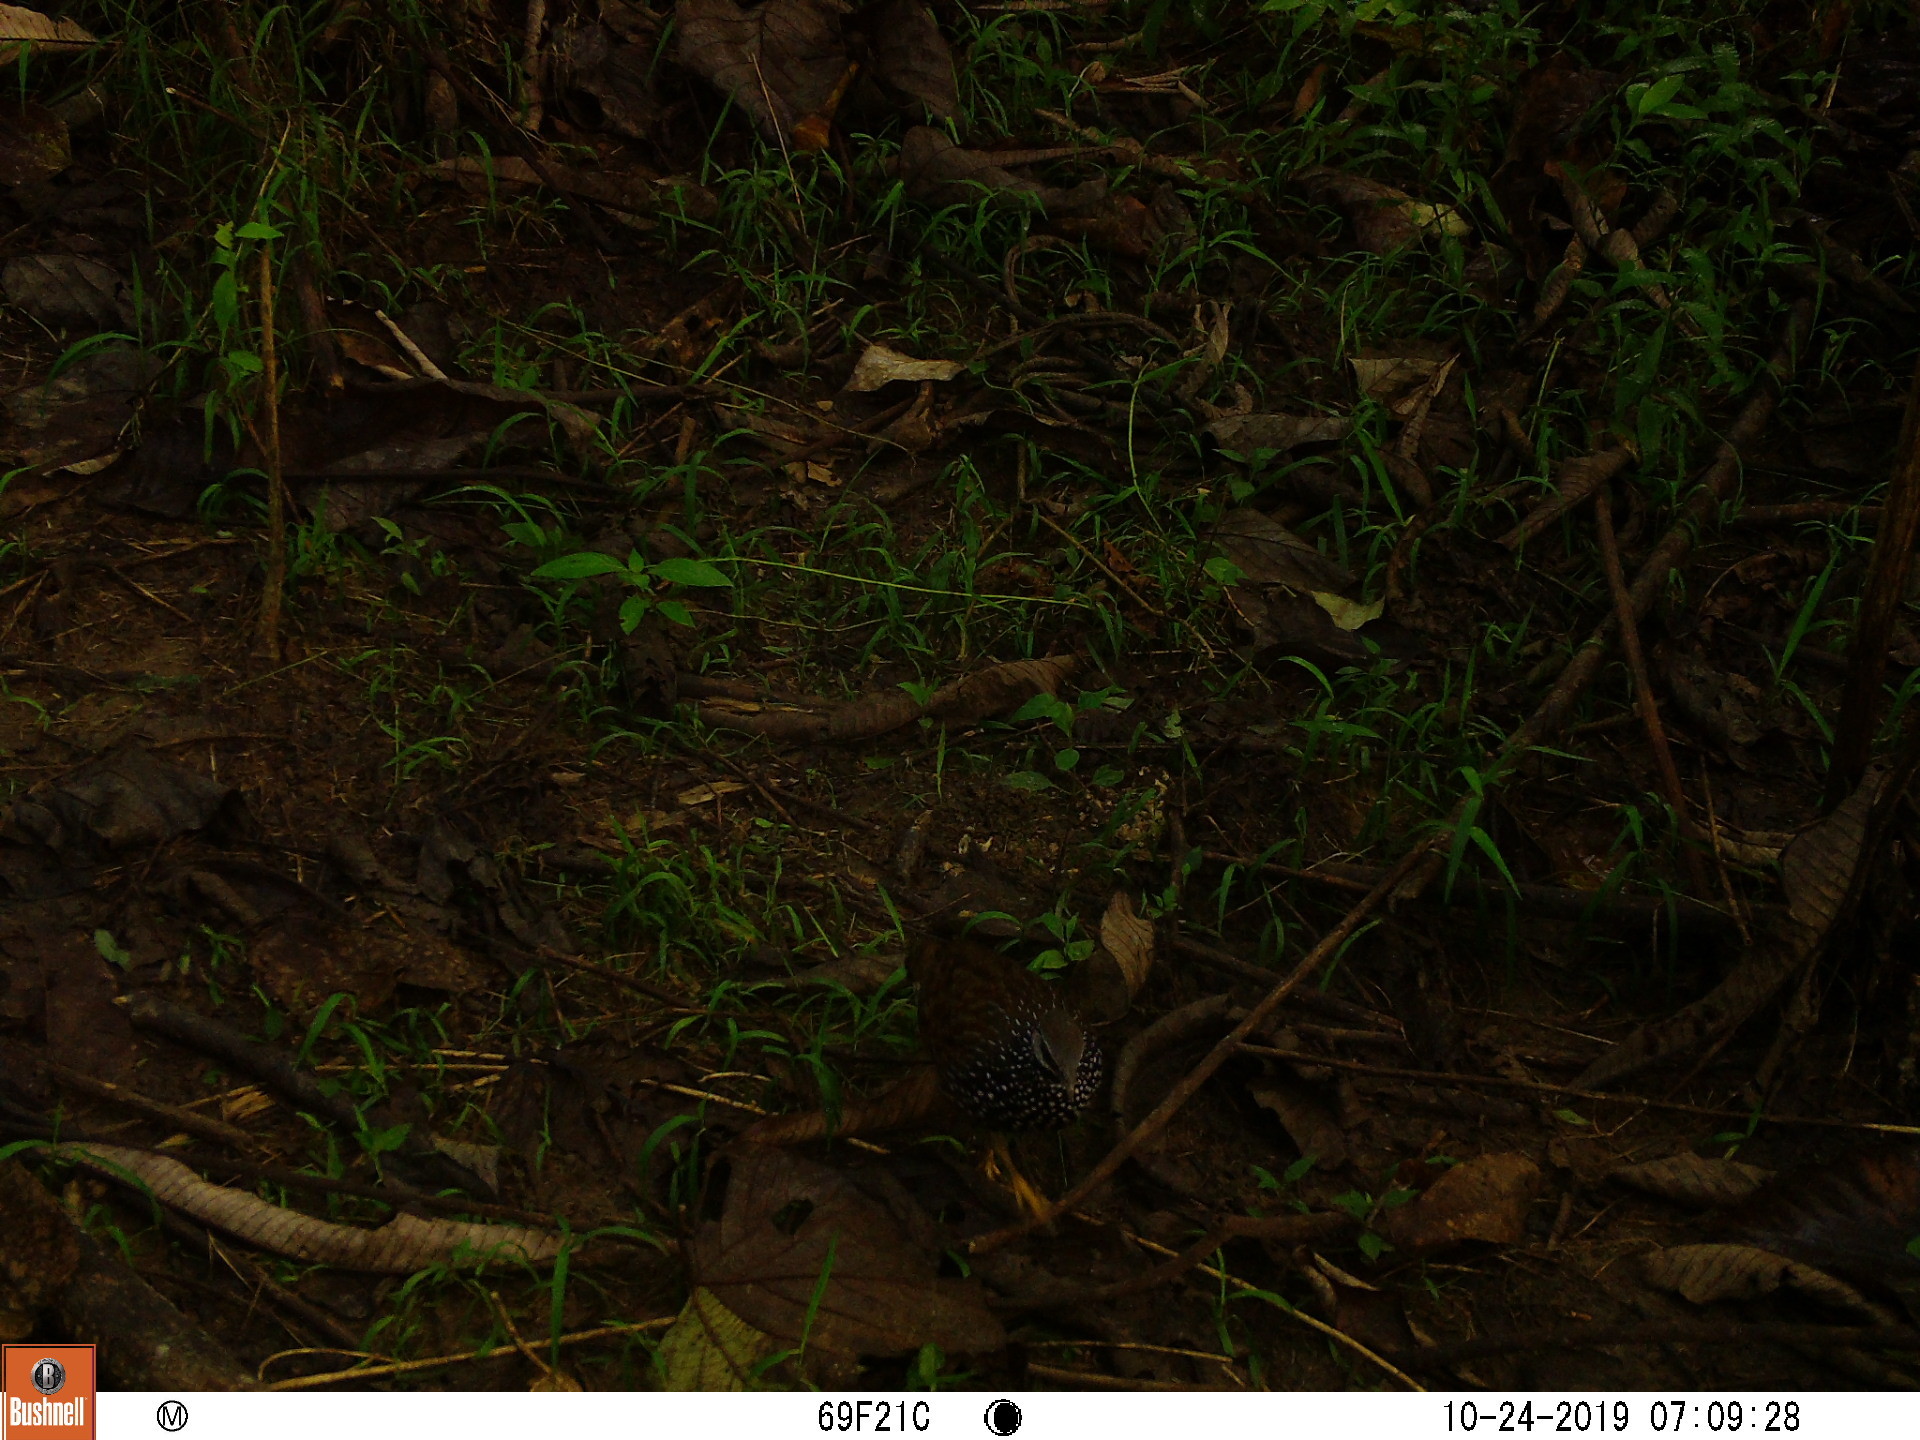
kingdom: Animalia
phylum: Chordata
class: Aves
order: Galliformes
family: Phasianidae
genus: Peliperdix
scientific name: Peliperdix lathami
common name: Latham's francolin
